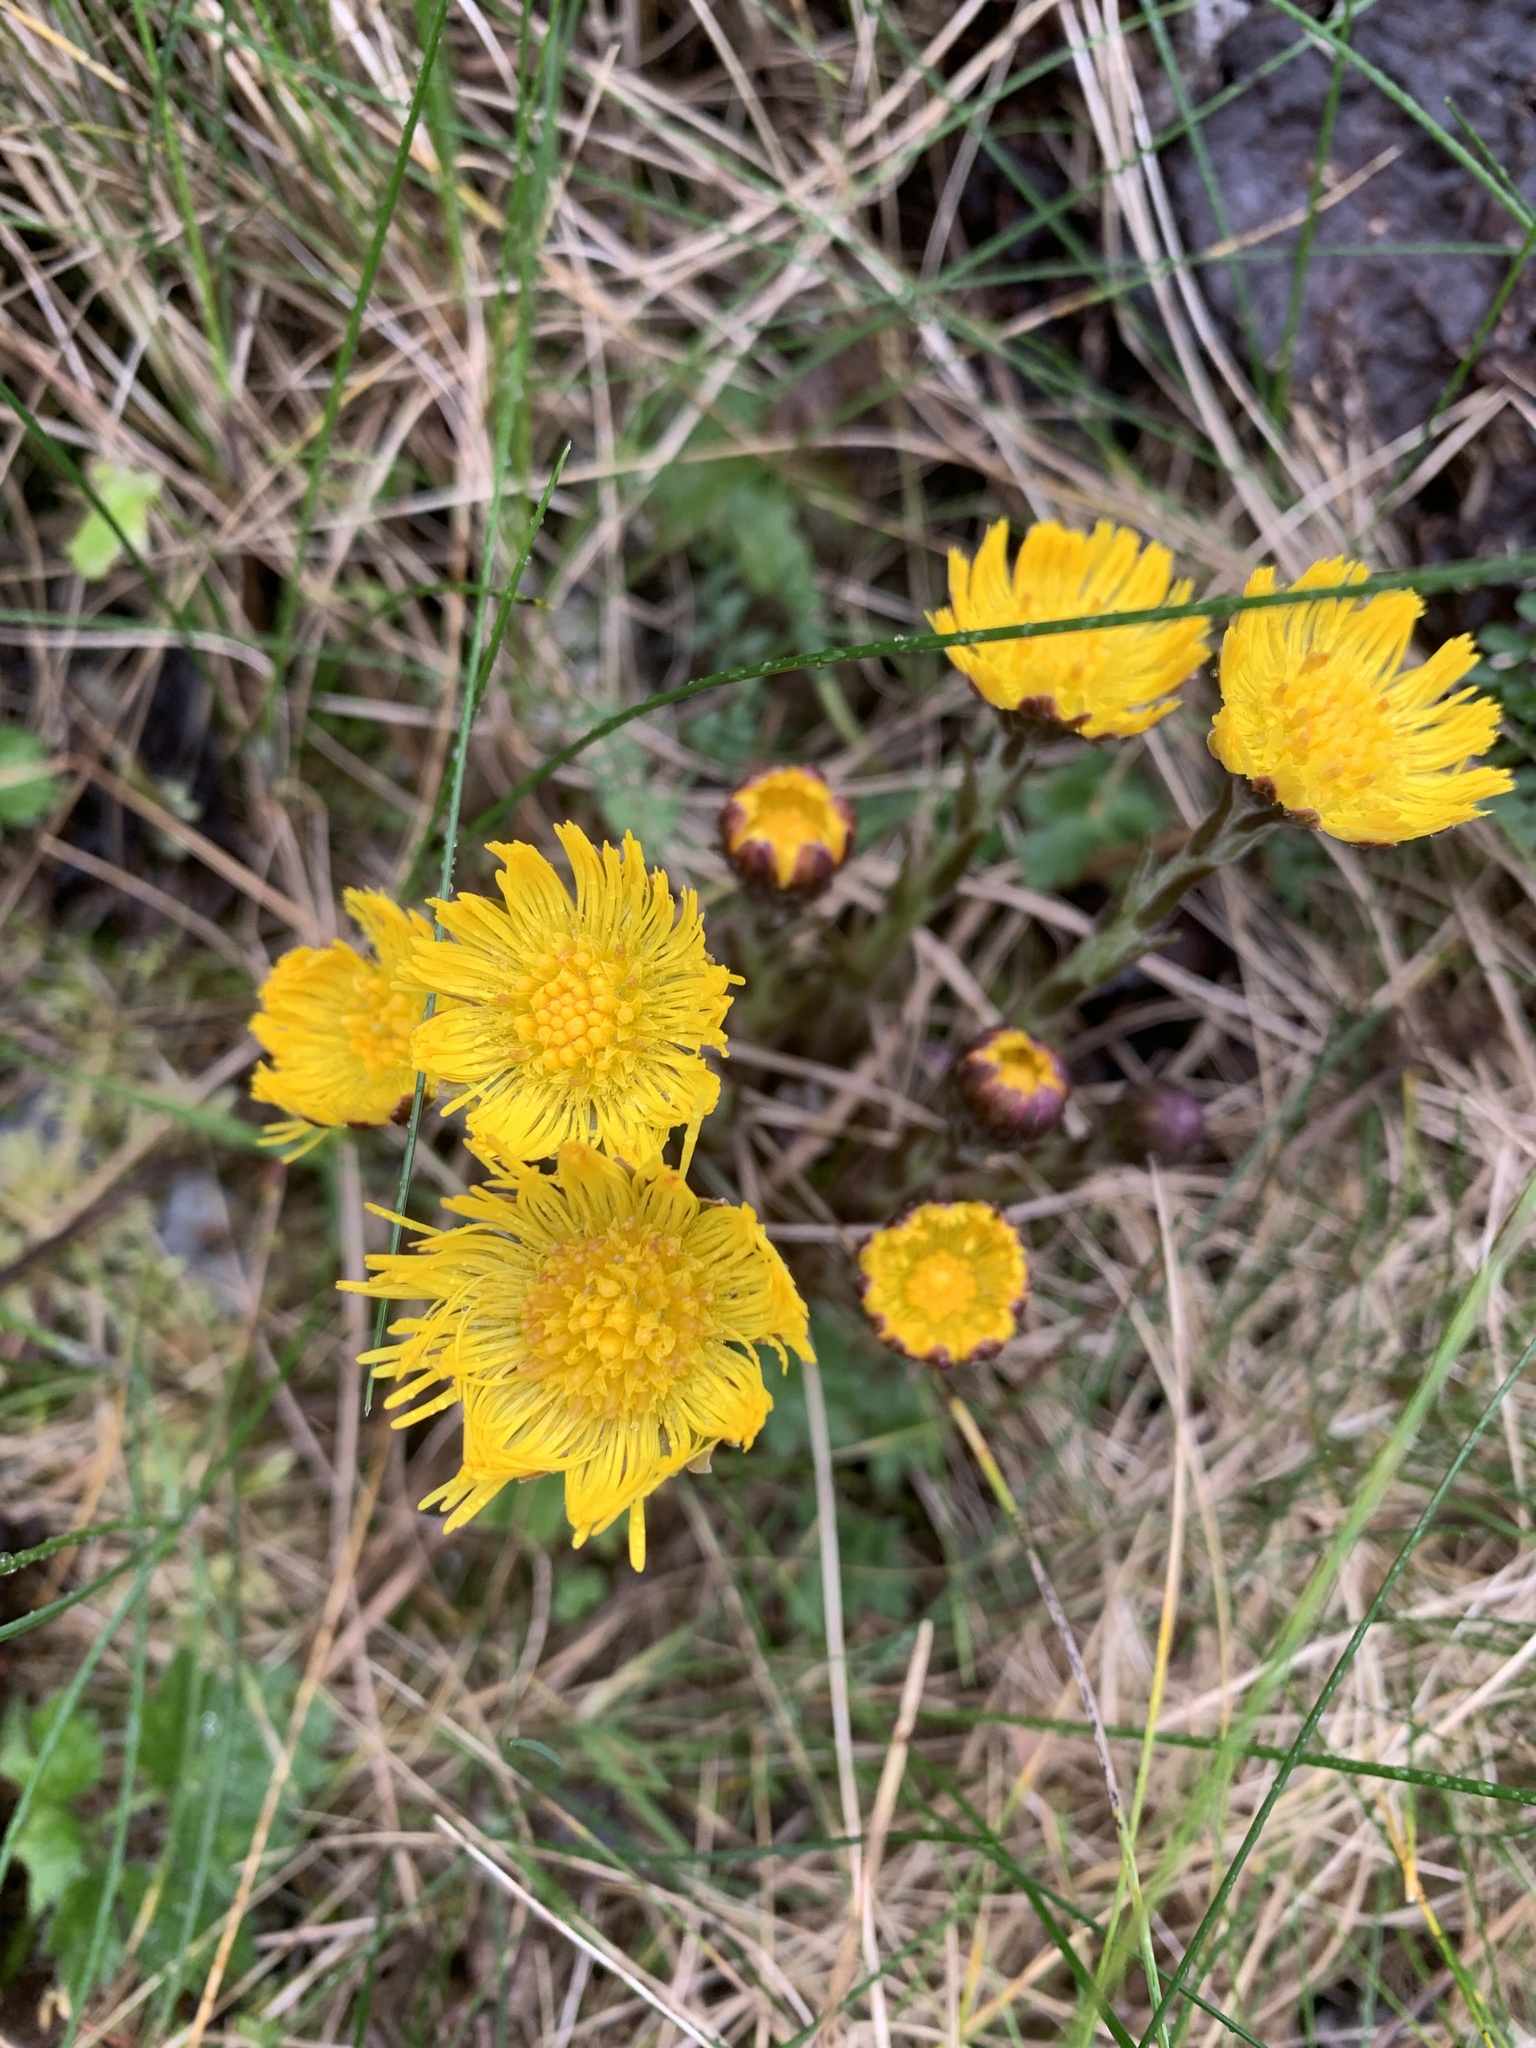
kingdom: Plantae
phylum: Tracheophyta
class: Magnoliopsida
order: Asterales
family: Asteraceae
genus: Tussilago
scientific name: Tussilago farfara
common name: Coltsfoot
